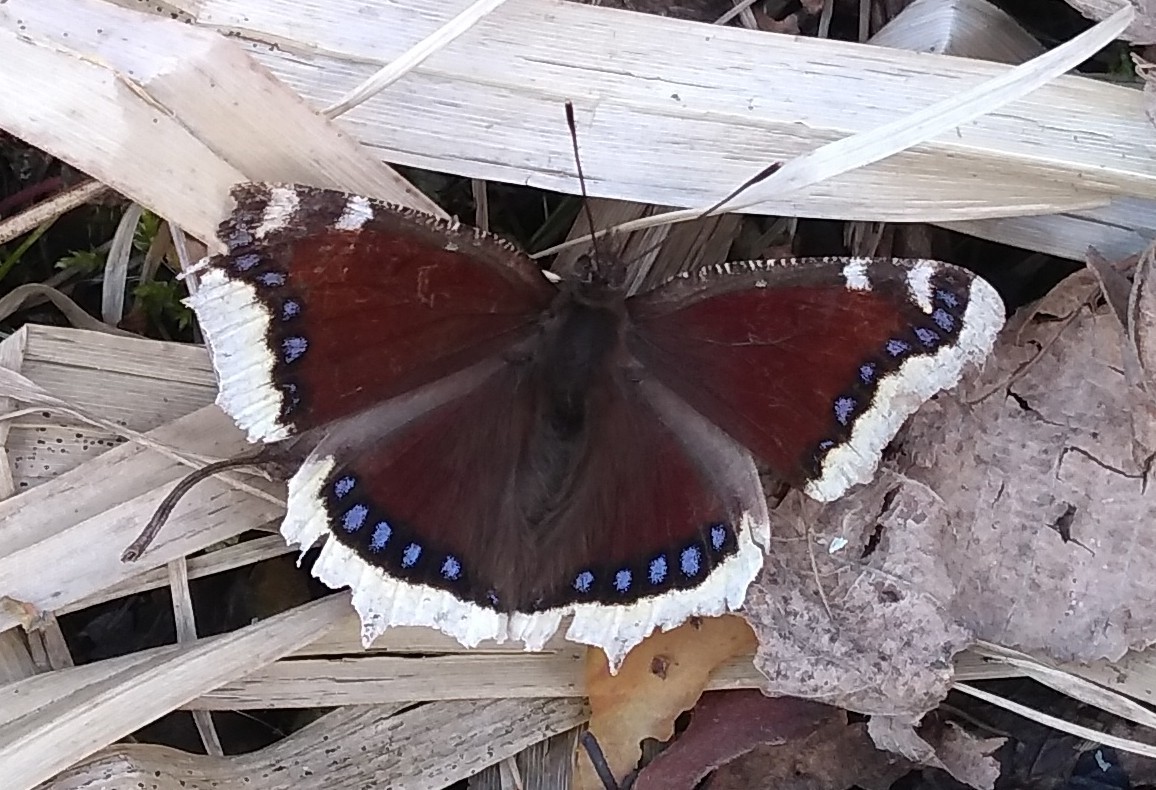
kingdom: Animalia
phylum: Arthropoda
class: Insecta
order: Lepidoptera
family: Nymphalidae
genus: Nymphalis
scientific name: Nymphalis antiopa
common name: Camberwell beauty
